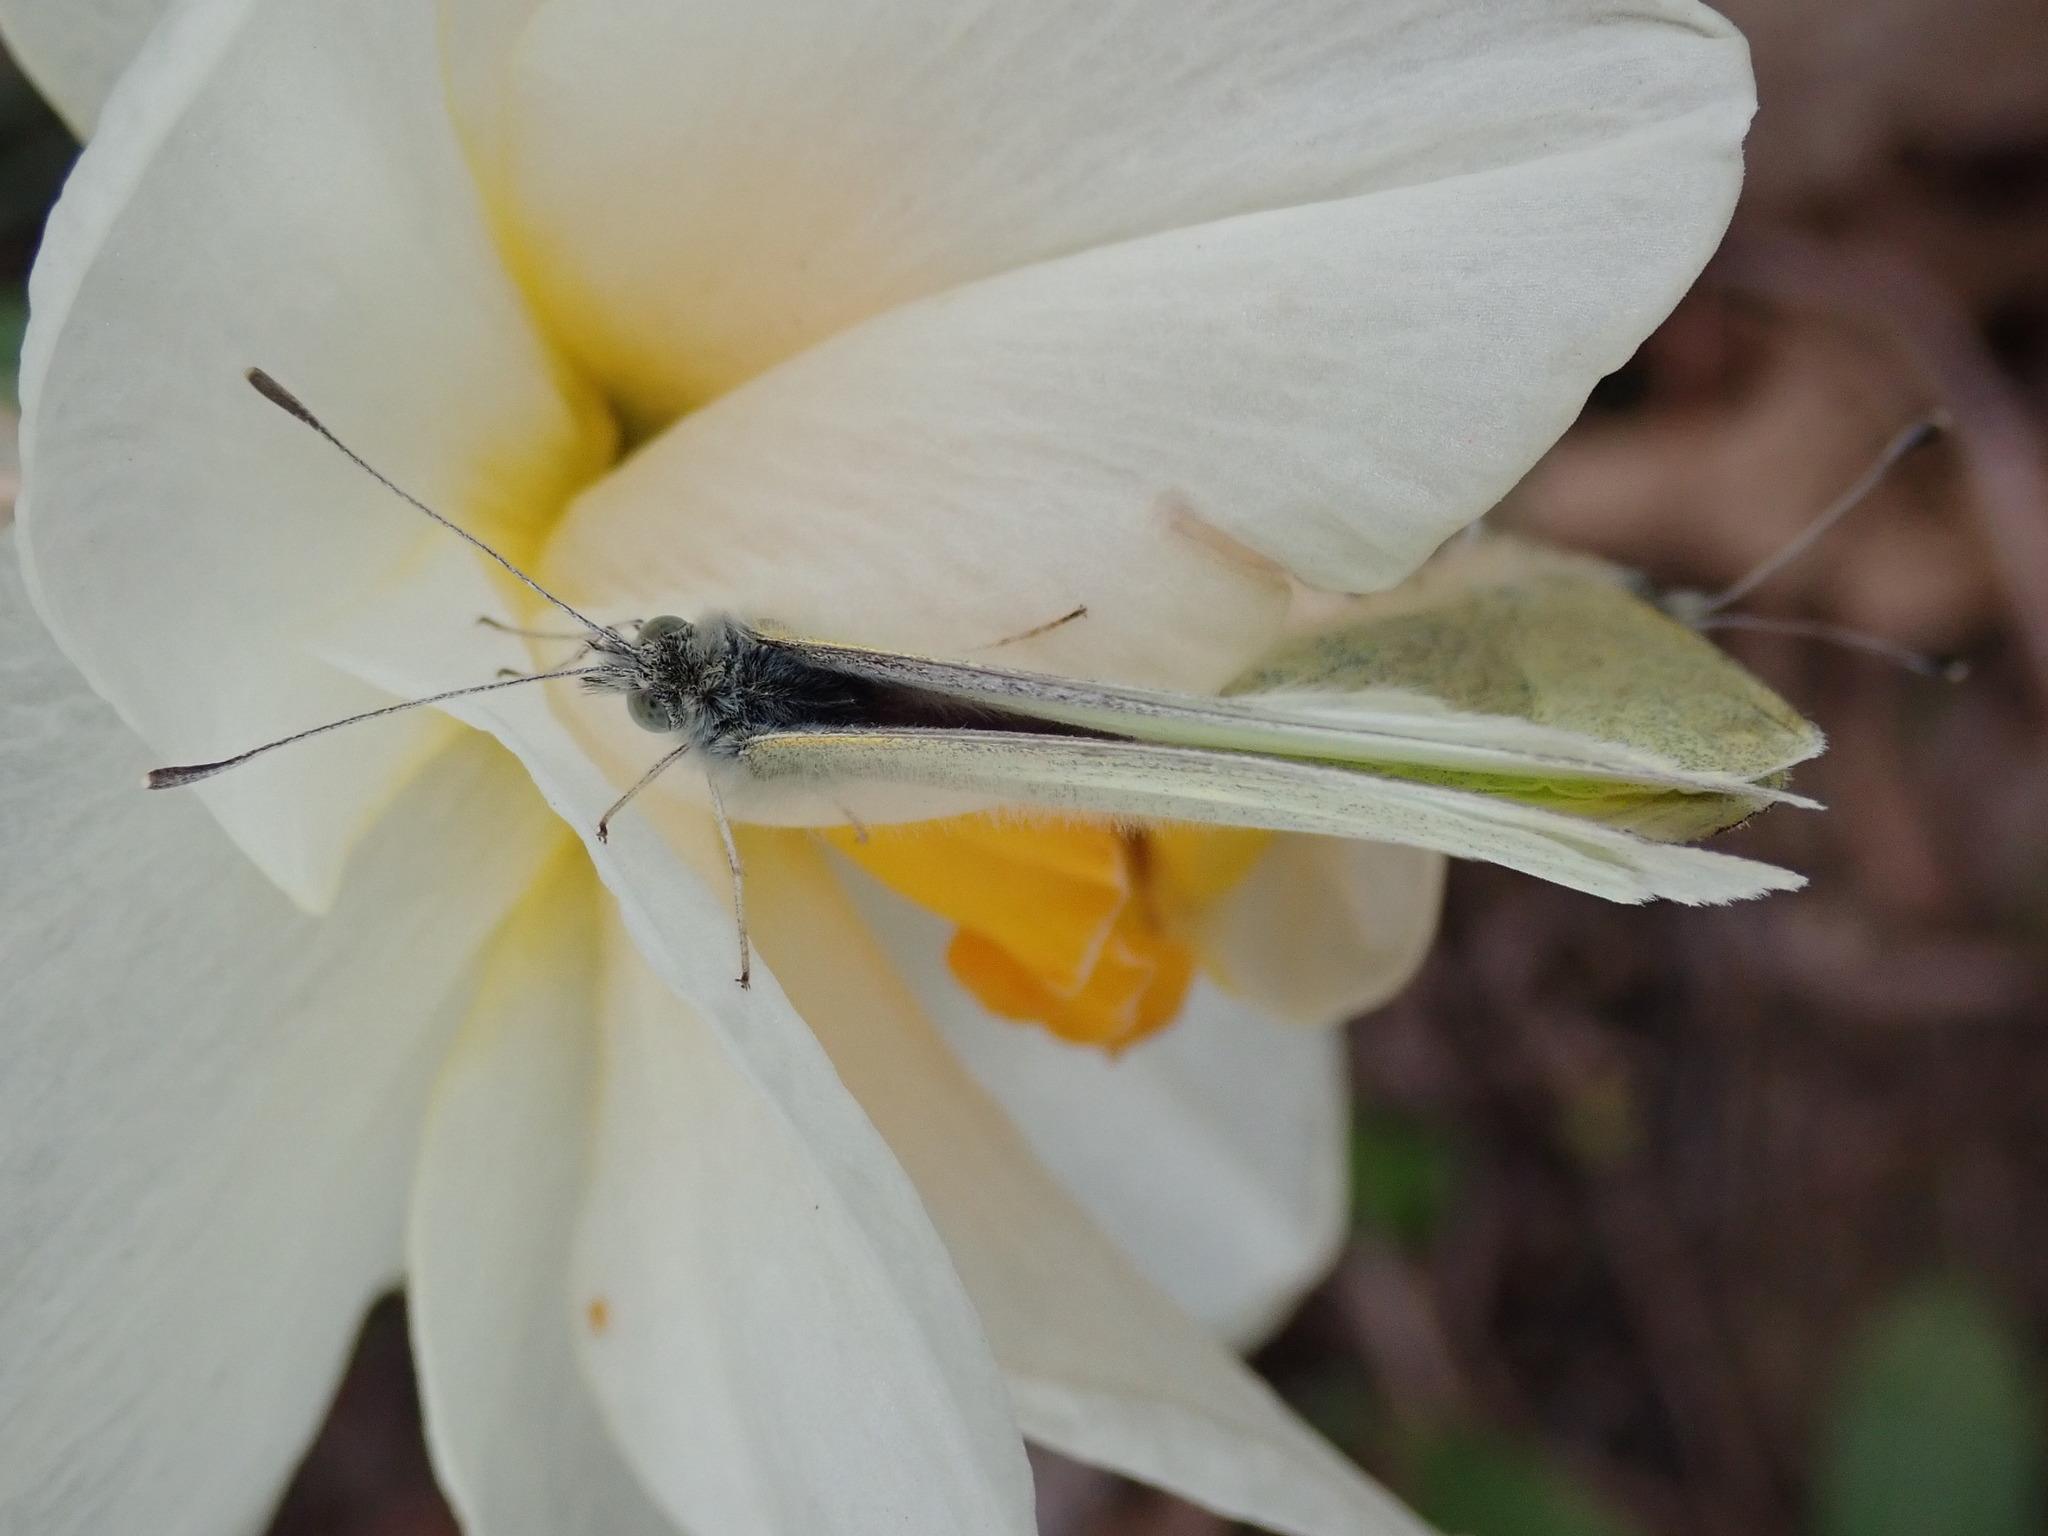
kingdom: Animalia
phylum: Arthropoda
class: Insecta
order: Lepidoptera
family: Pieridae
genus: Pieris
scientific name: Pieris rapae
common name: Small white
